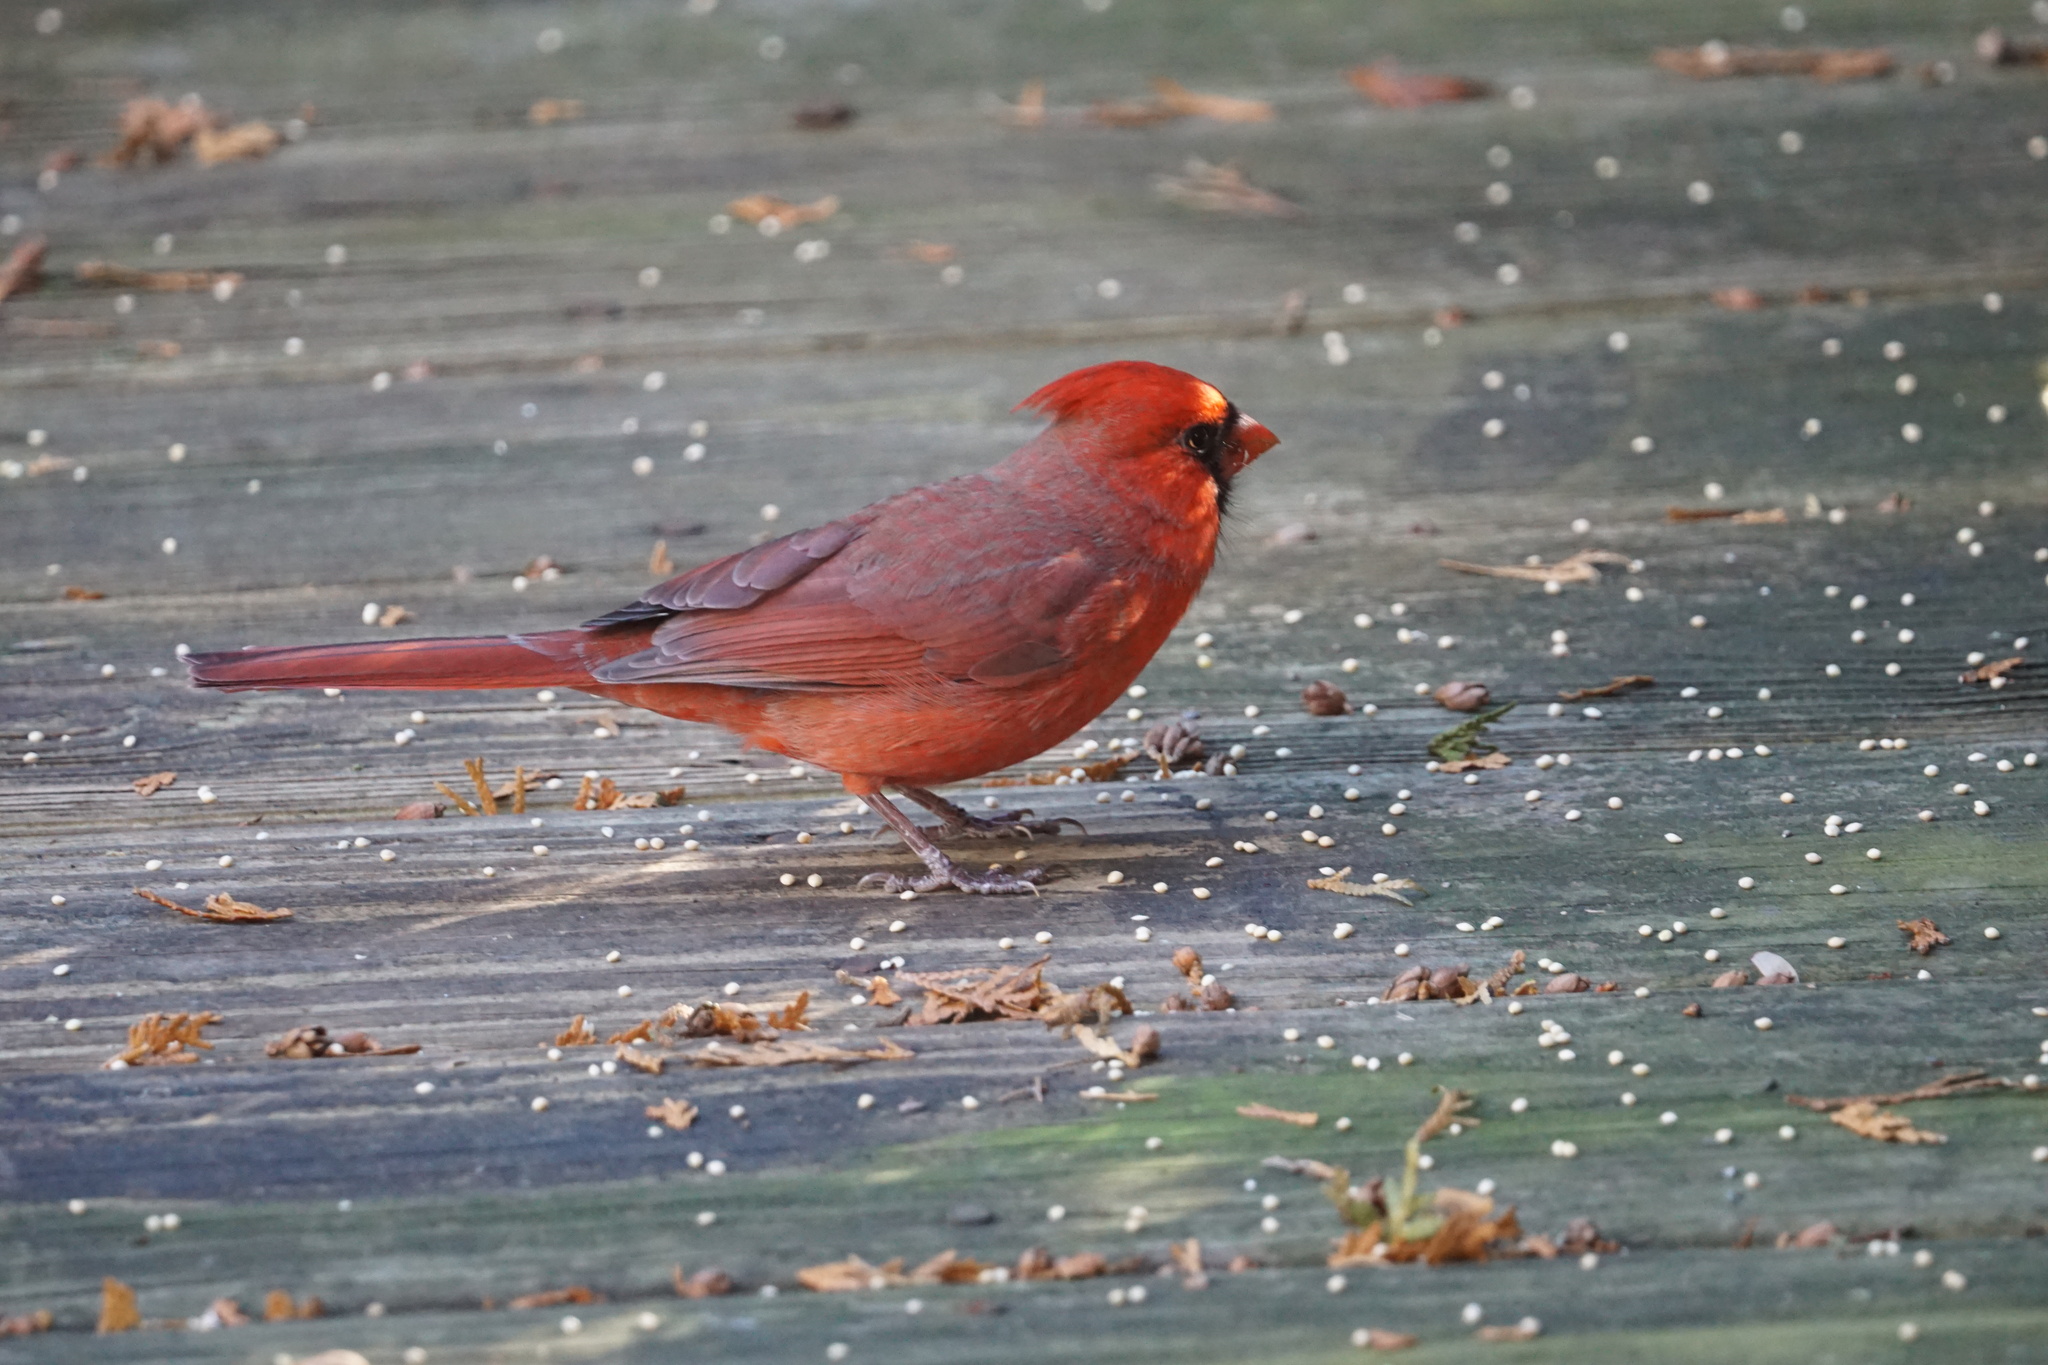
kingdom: Animalia
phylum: Chordata
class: Aves
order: Passeriformes
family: Cardinalidae
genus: Cardinalis
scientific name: Cardinalis cardinalis
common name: Northern cardinal
